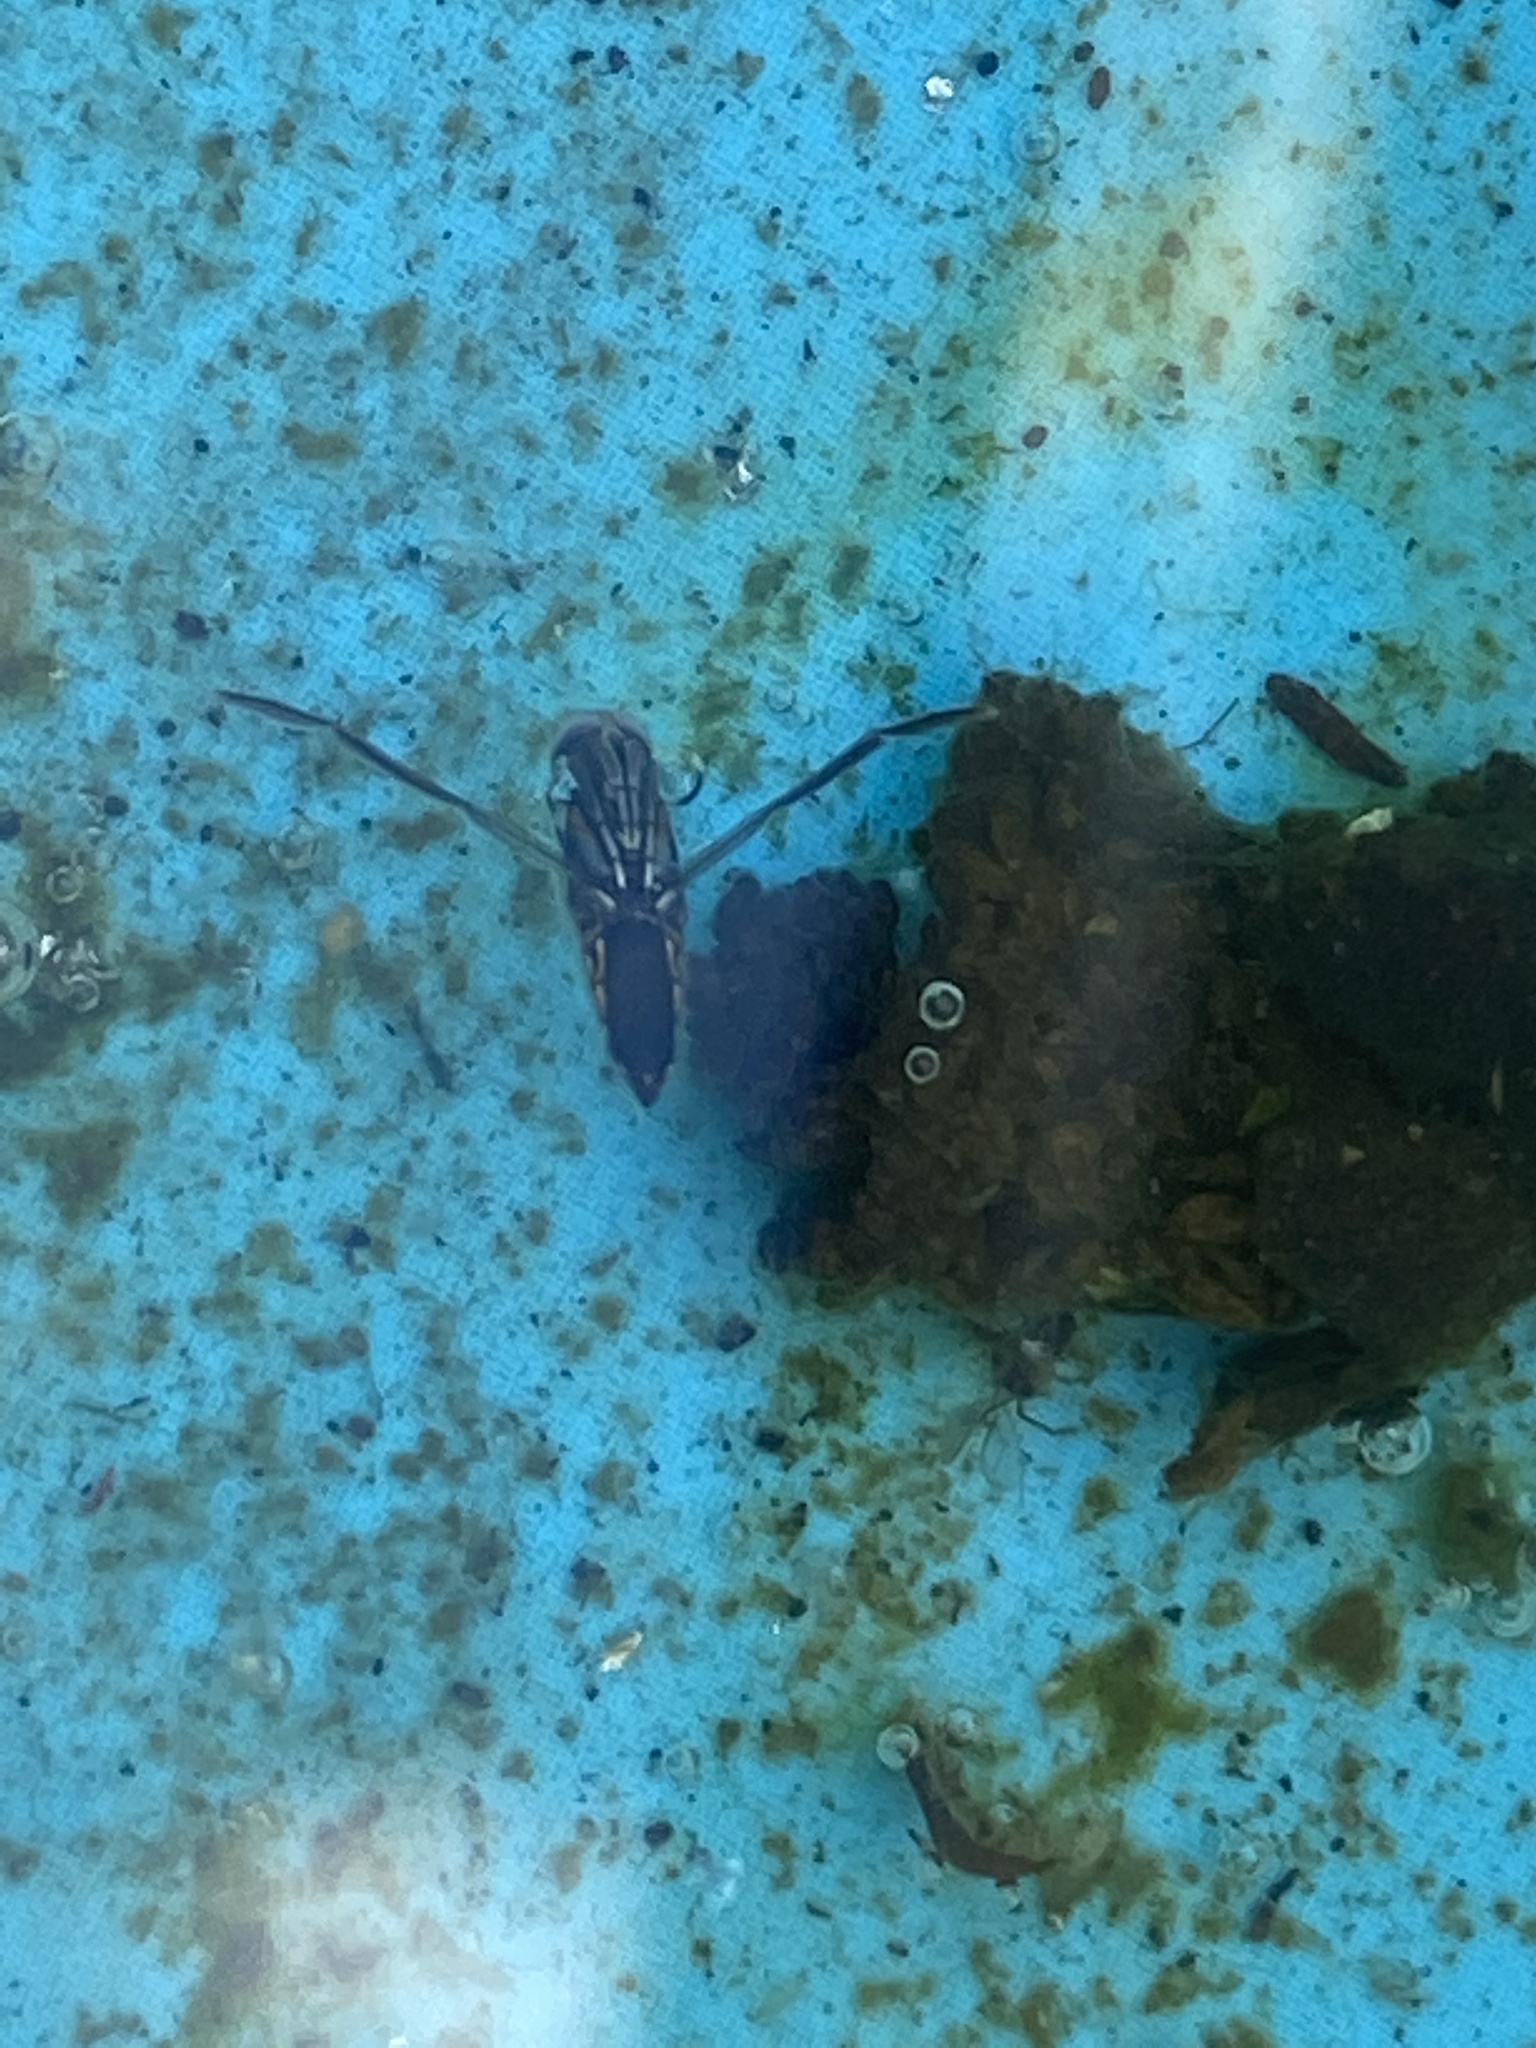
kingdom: Animalia
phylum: Arthropoda
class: Insecta
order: Hemiptera
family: Notonectidae
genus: Buenoa
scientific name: Buenoa
